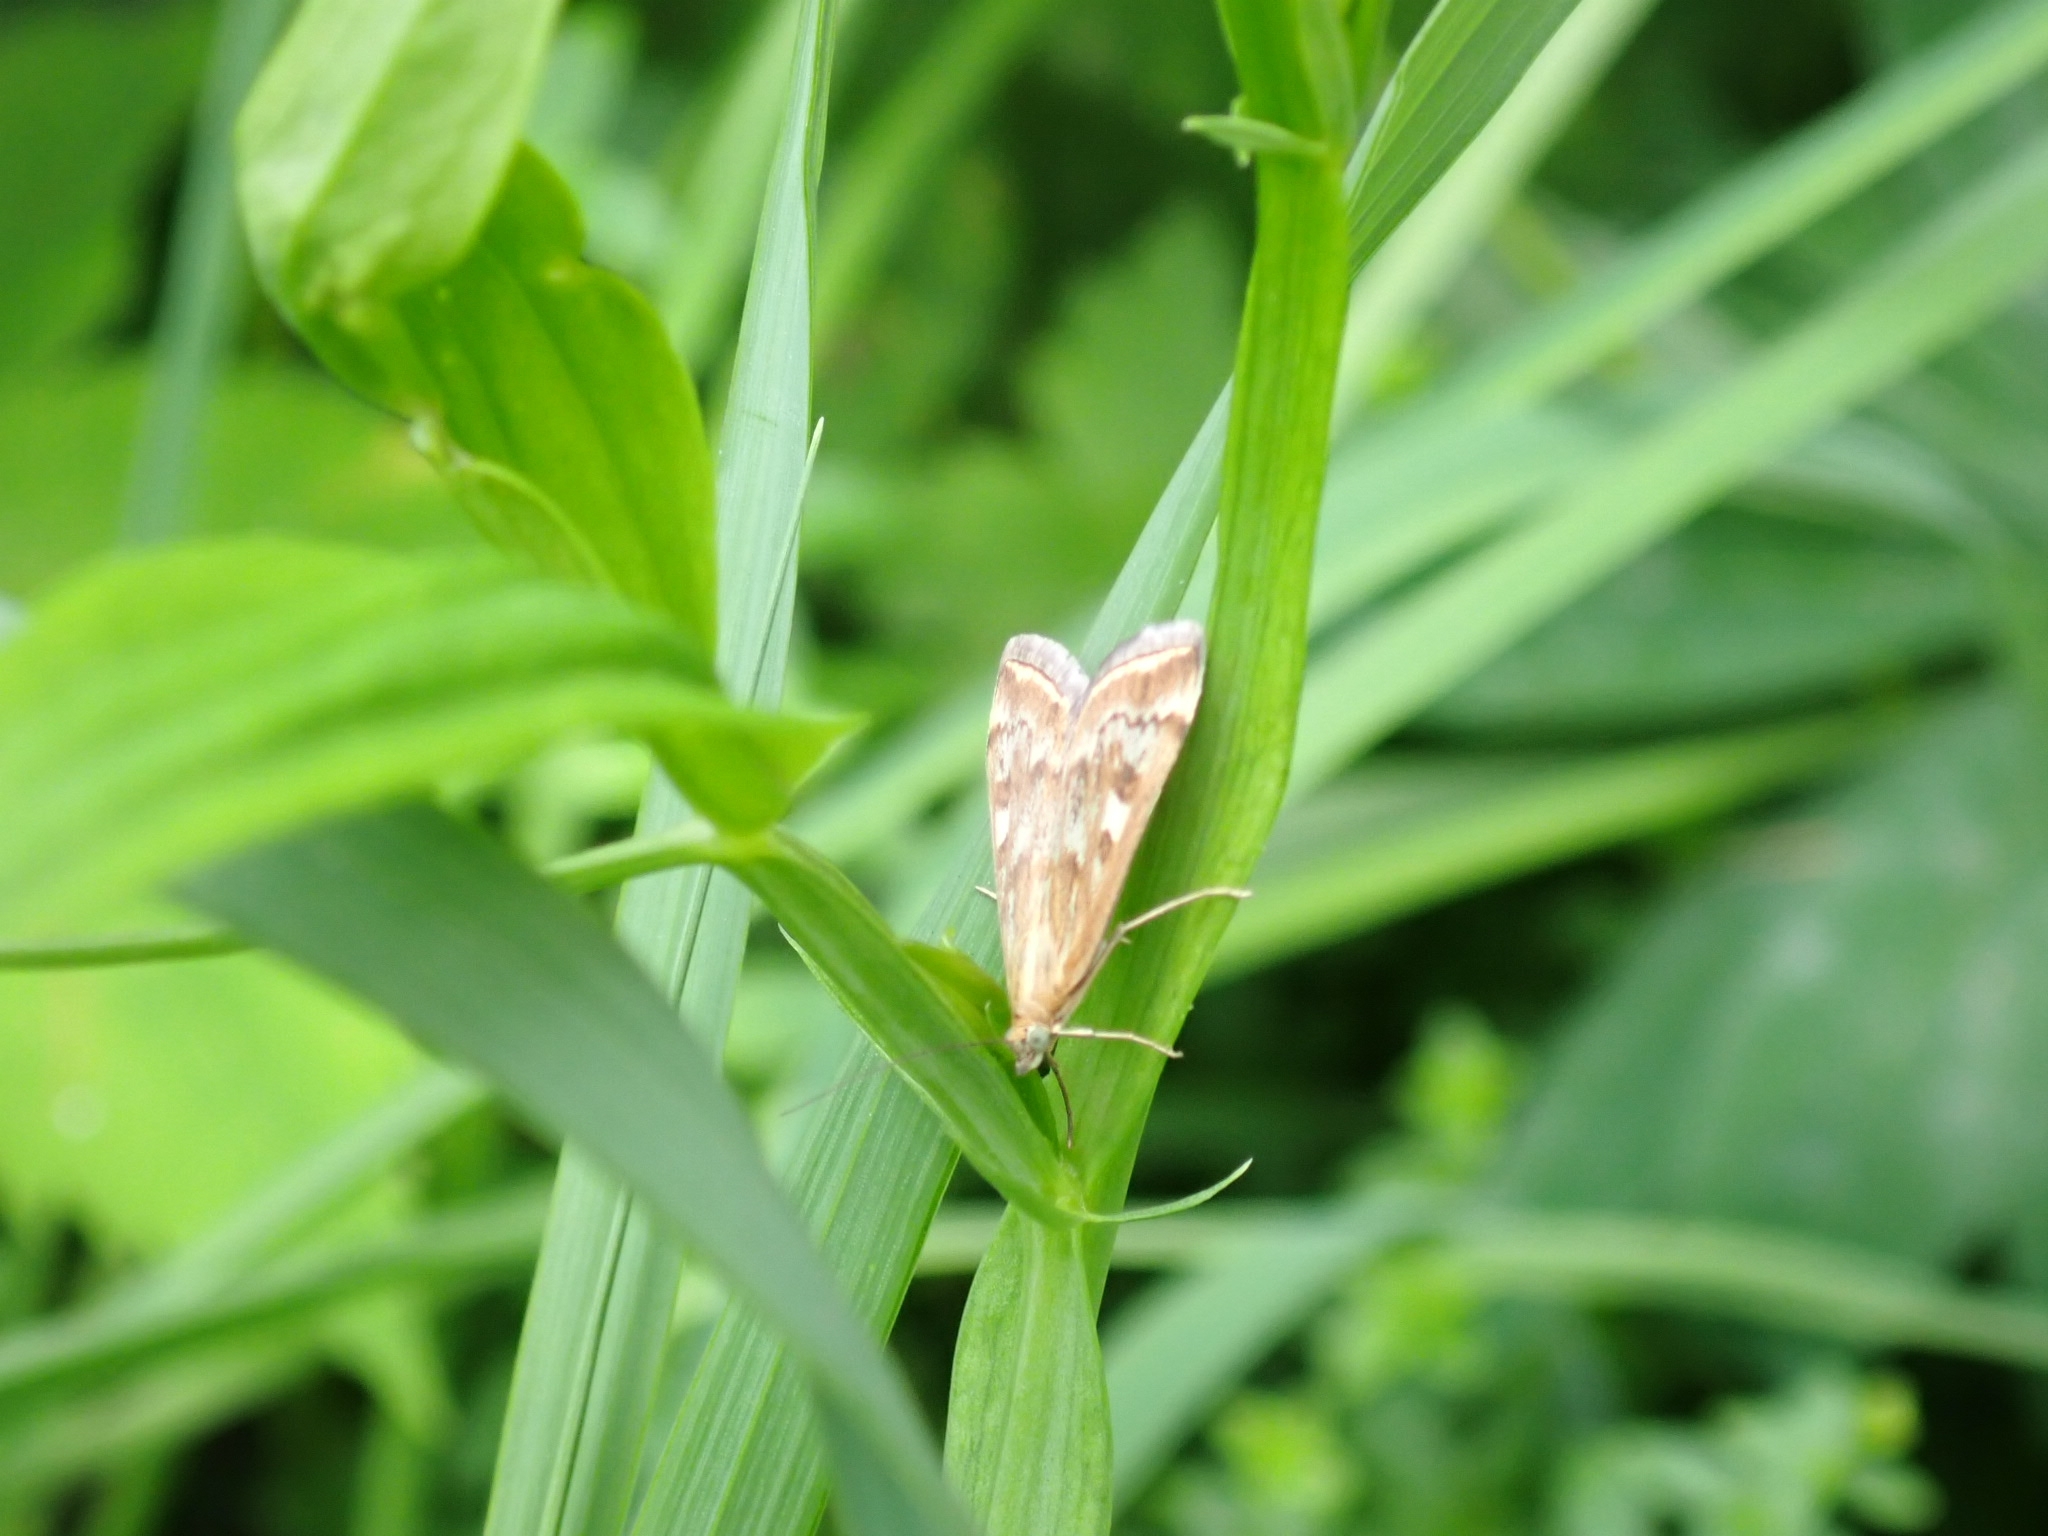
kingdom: Animalia
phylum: Arthropoda
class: Insecta
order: Lepidoptera
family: Crambidae
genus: Loxostege
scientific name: Loxostege sticticalis
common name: Crambid moth
